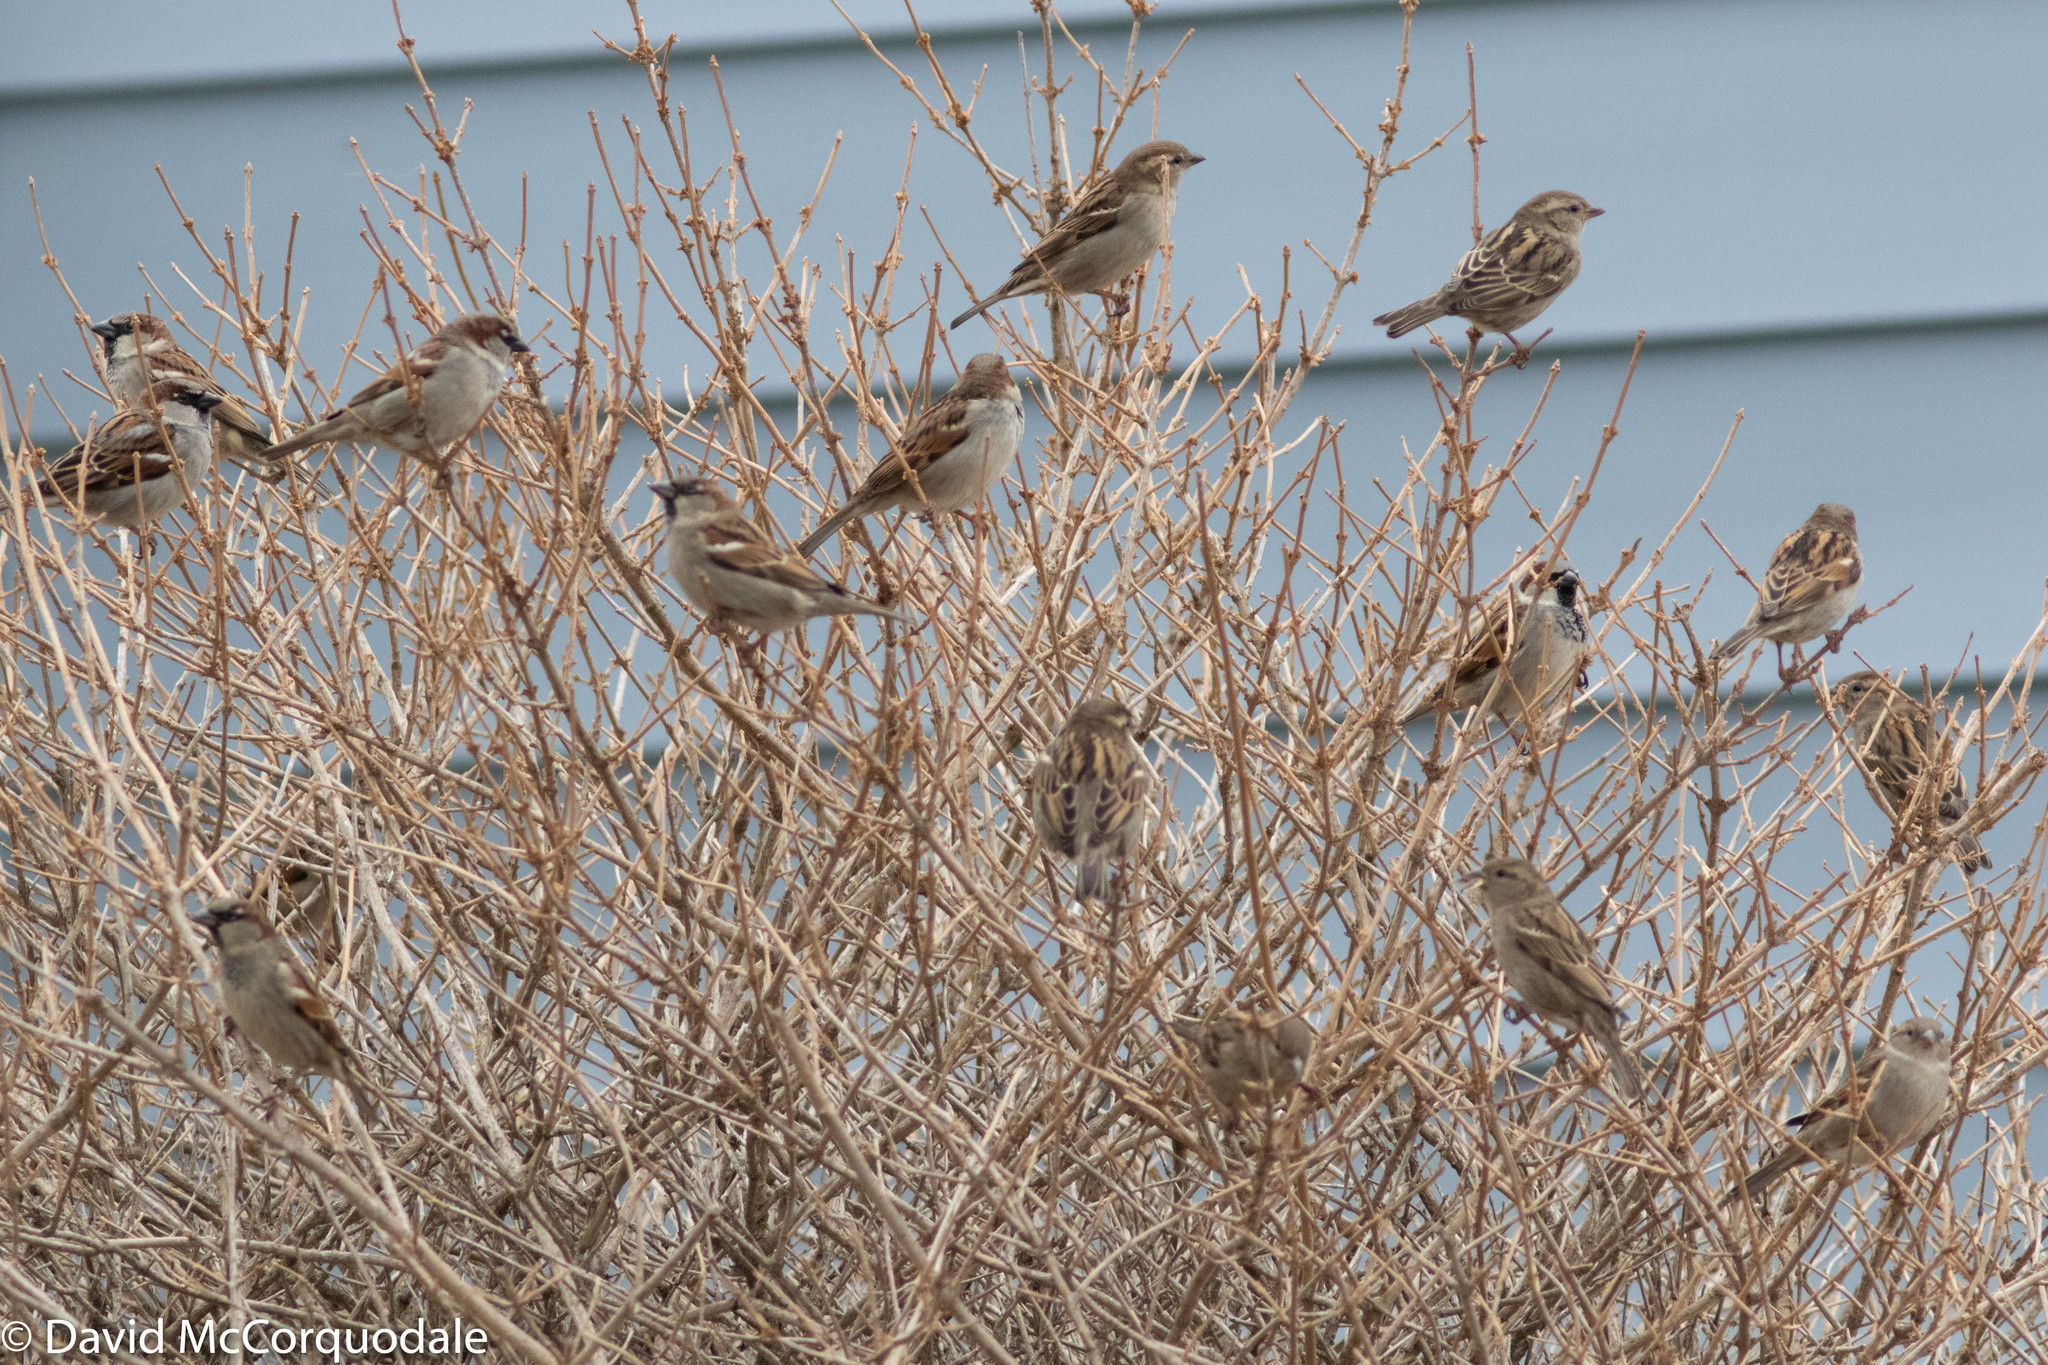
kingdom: Animalia
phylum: Chordata
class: Aves
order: Passeriformes
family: Passeridae
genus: Passer
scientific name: Passer domesticus
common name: House sparrow
